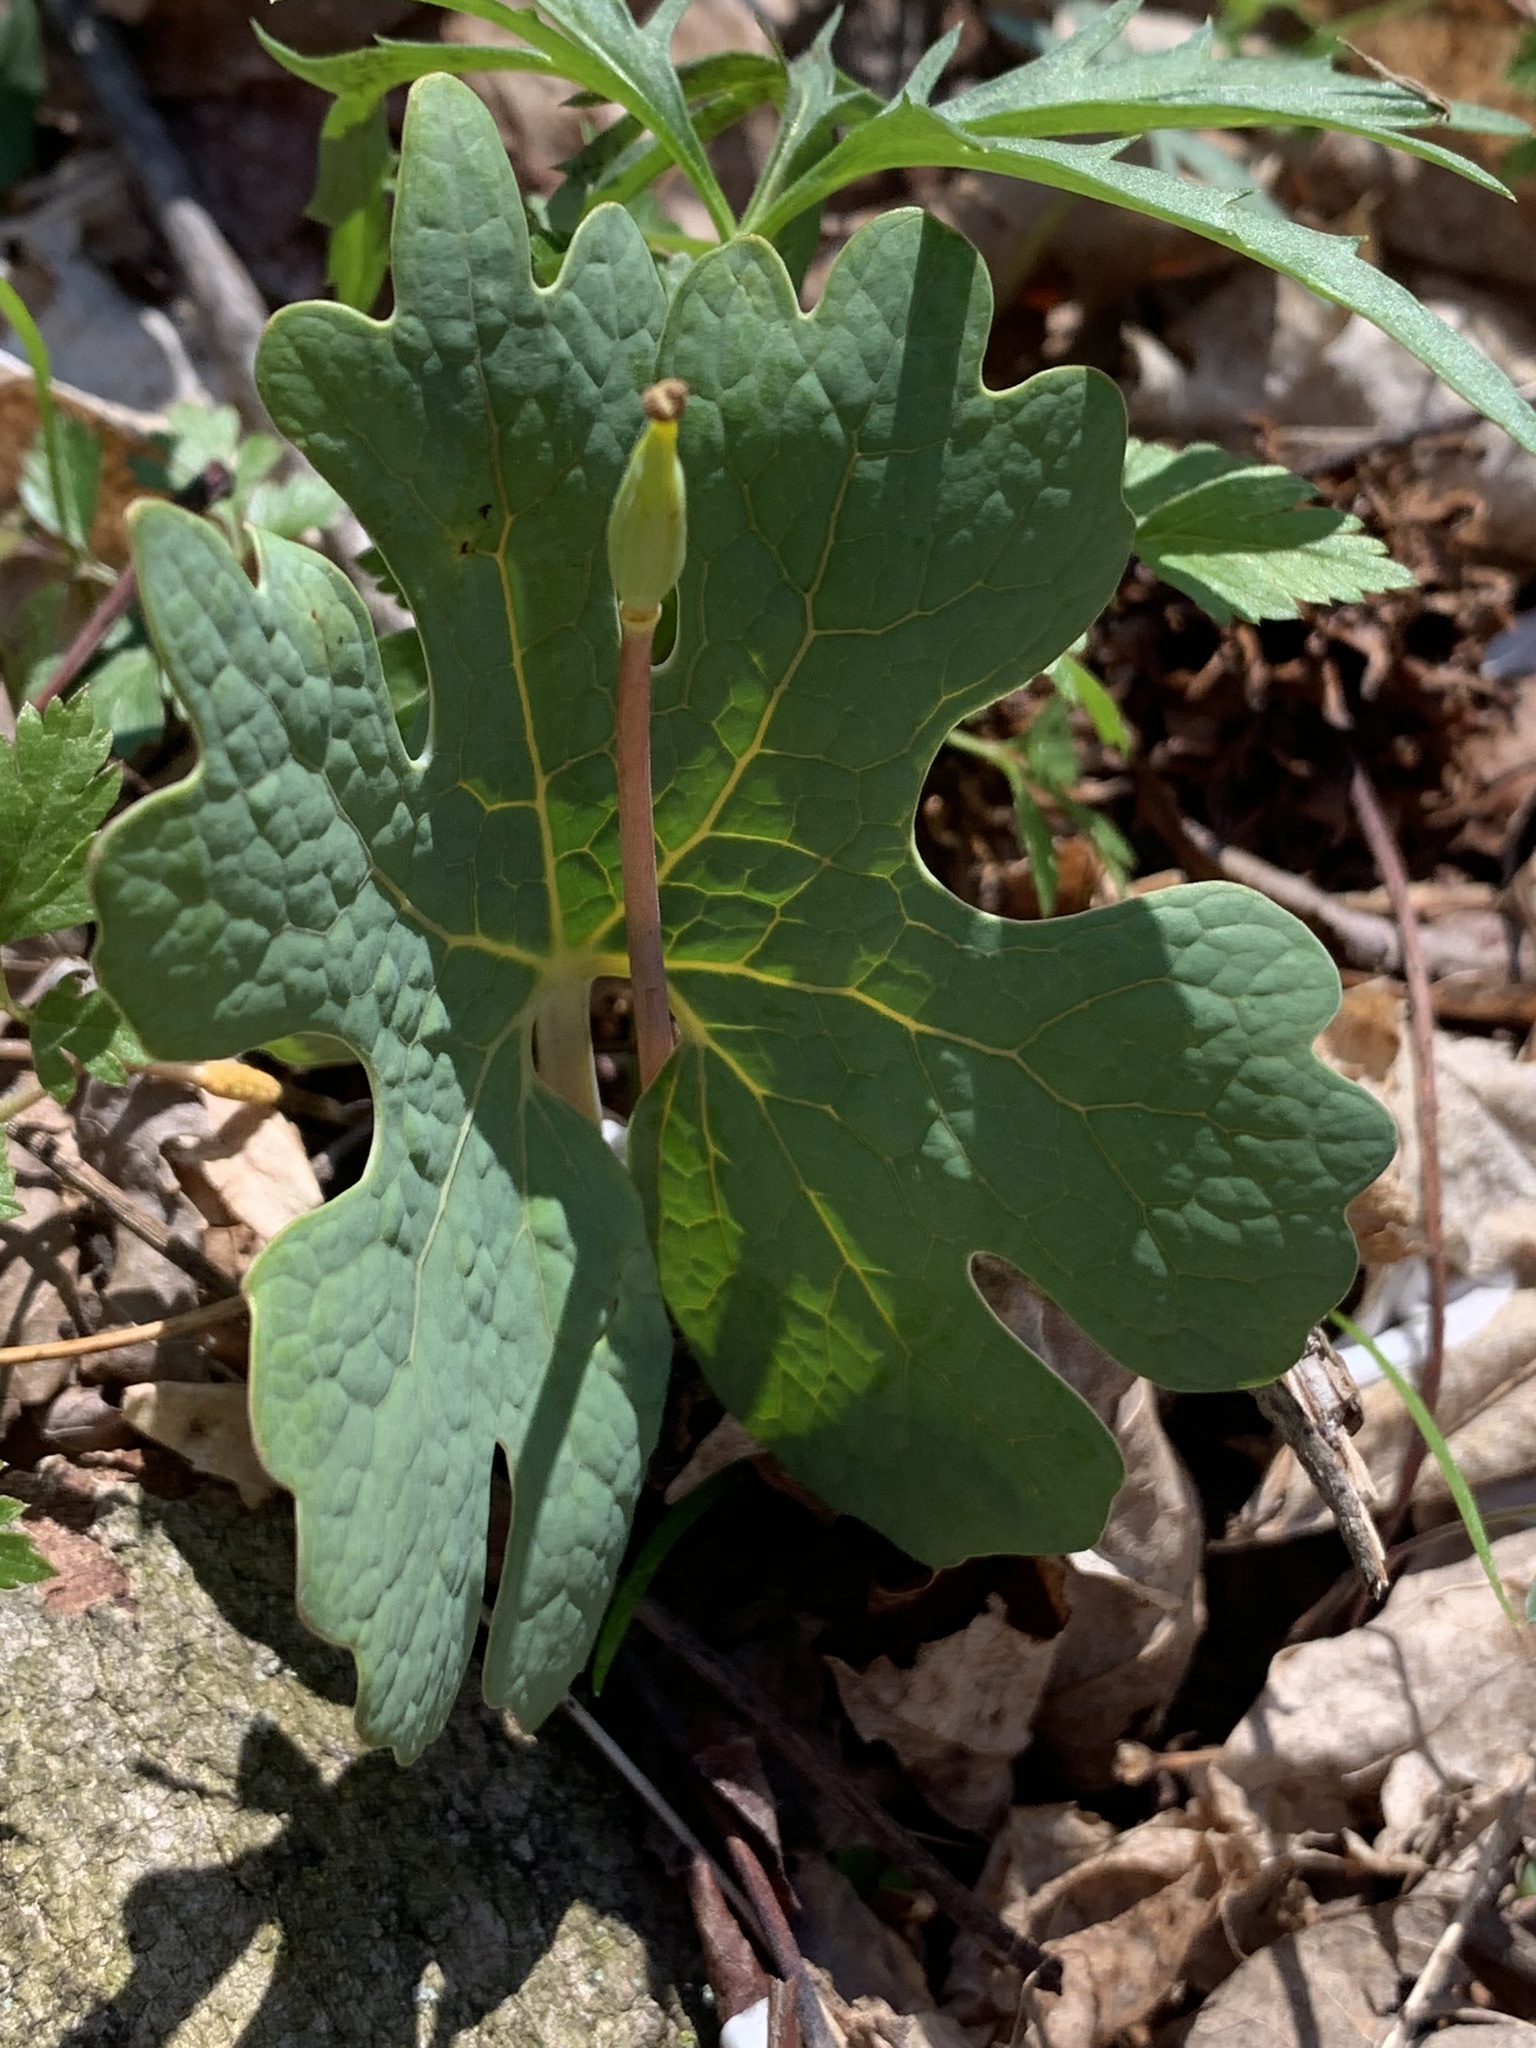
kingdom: Plantae
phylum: Tracheophyta
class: Magnoliopsida
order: Ranunculales
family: Papaveraceae
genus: Sanguinaria
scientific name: Sanguinaria canadensis
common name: Bloodroot
